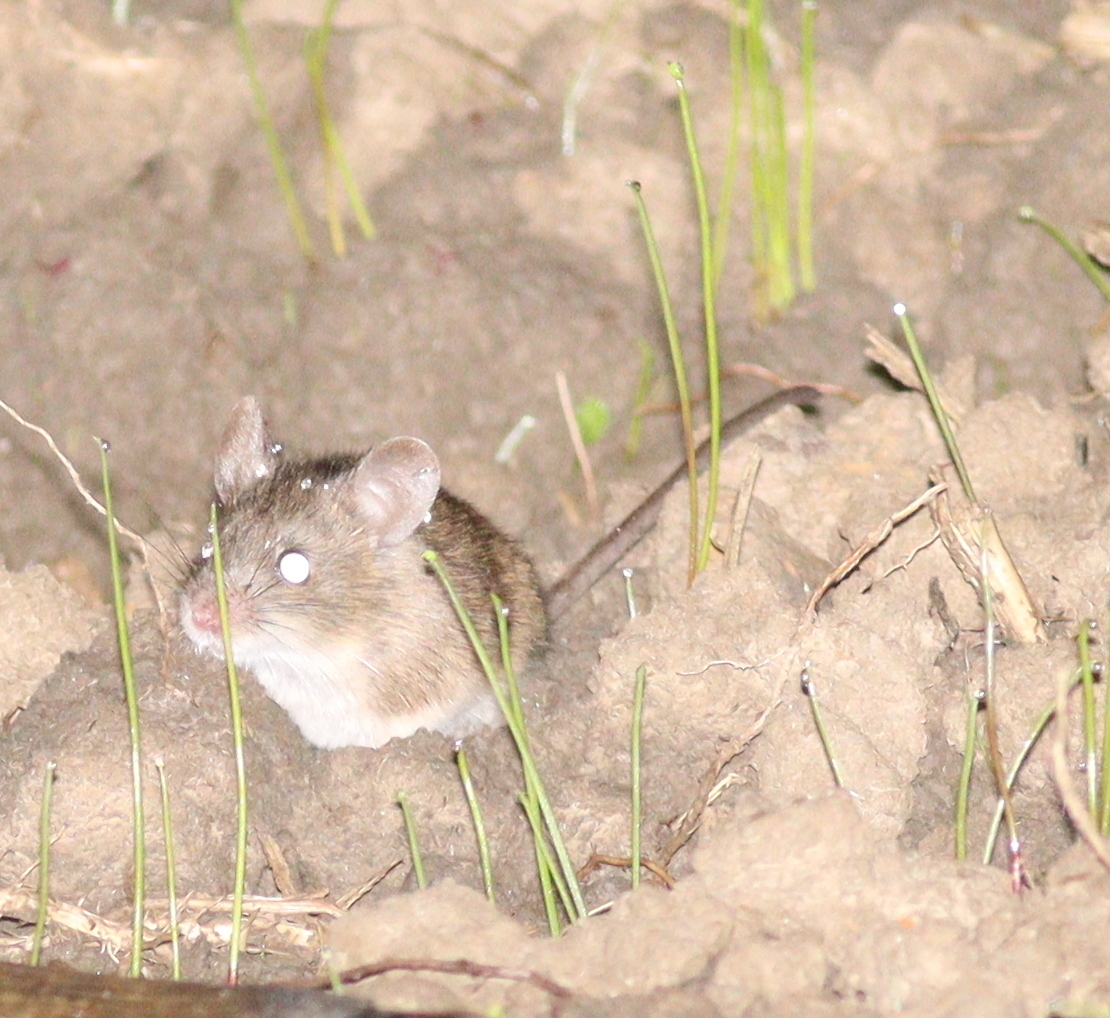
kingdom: Animalia
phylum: Chordata
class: Mammalia
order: Rodentia
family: Muridae
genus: Apodemus
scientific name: Apodemus sylvaticus
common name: Wood mouse
